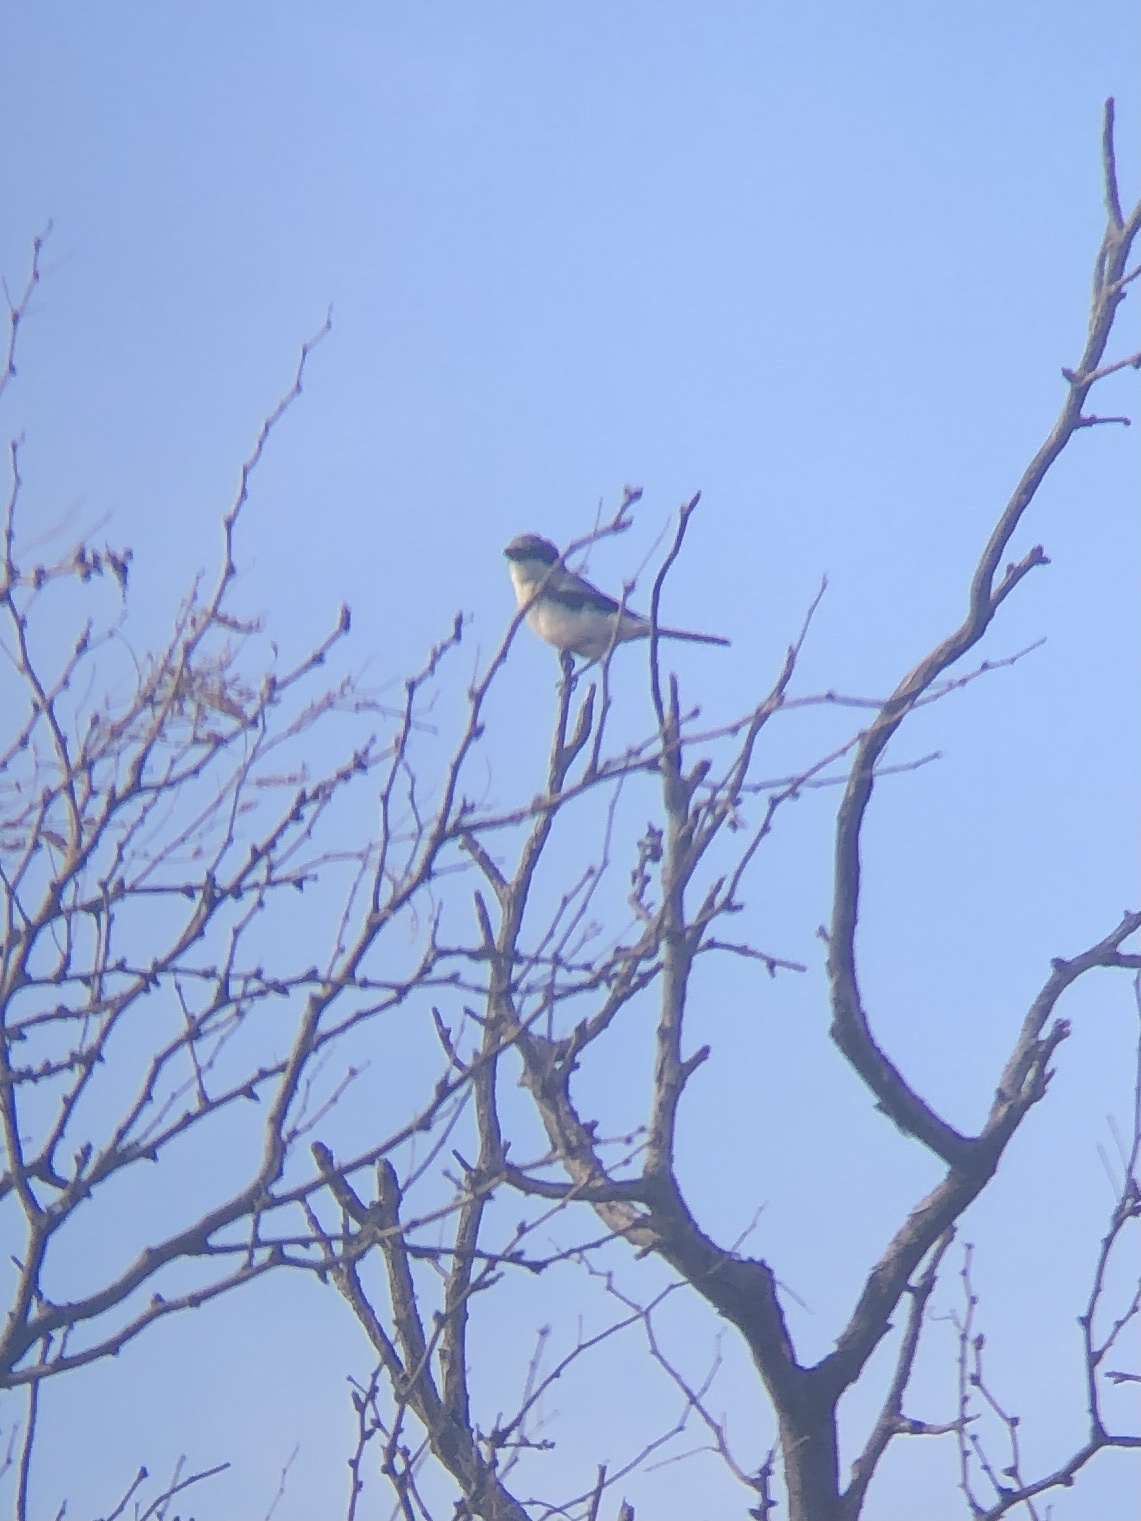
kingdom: Animalia
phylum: Chordata
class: Aves
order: Passeriformes
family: Laniidae
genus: Lanius
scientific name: Lanius ludovicianus
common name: Loggerhead shrike
